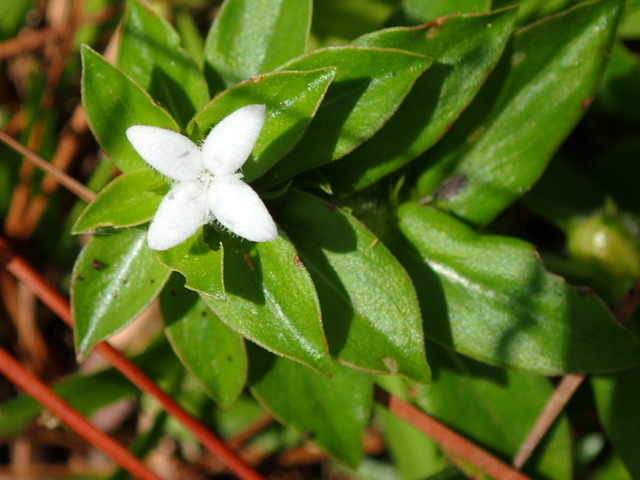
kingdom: Plantae
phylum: Tracheophyta
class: Magnoliopsida
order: Gentianales
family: Rubiaceae
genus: Diodia
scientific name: Diodia virginiana
